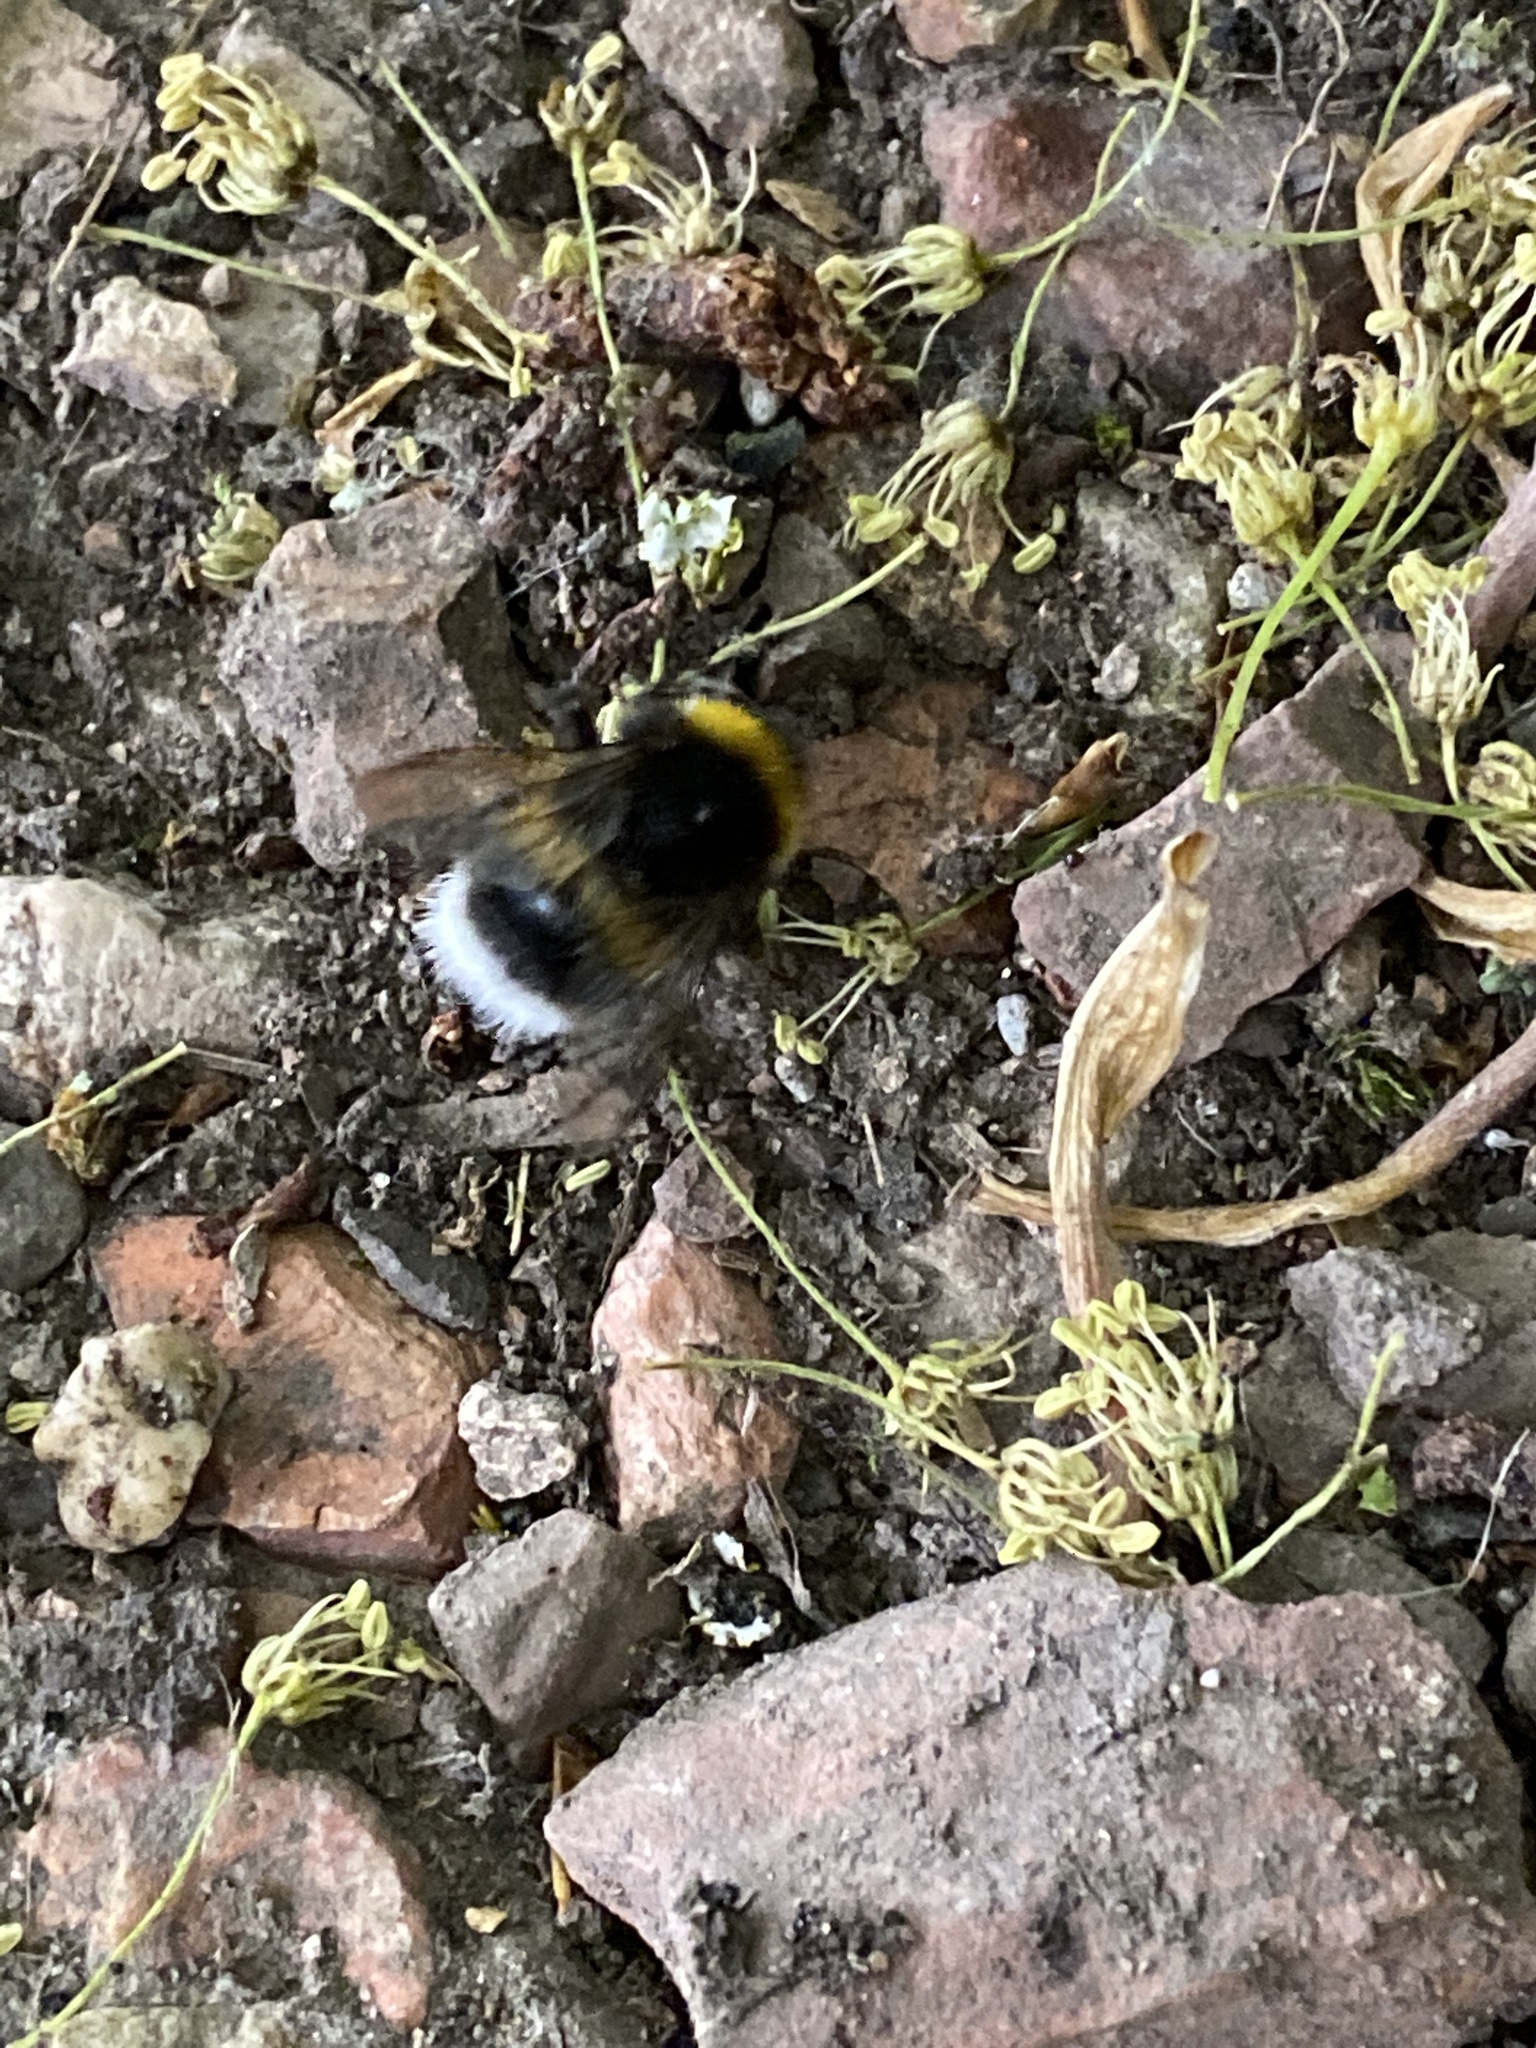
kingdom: Animalia
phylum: Arthropoda
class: Insecta
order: Hymenoptera
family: Apidae
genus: Bombus
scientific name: Bombus terrestris
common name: Buff-tailed bumblebee
